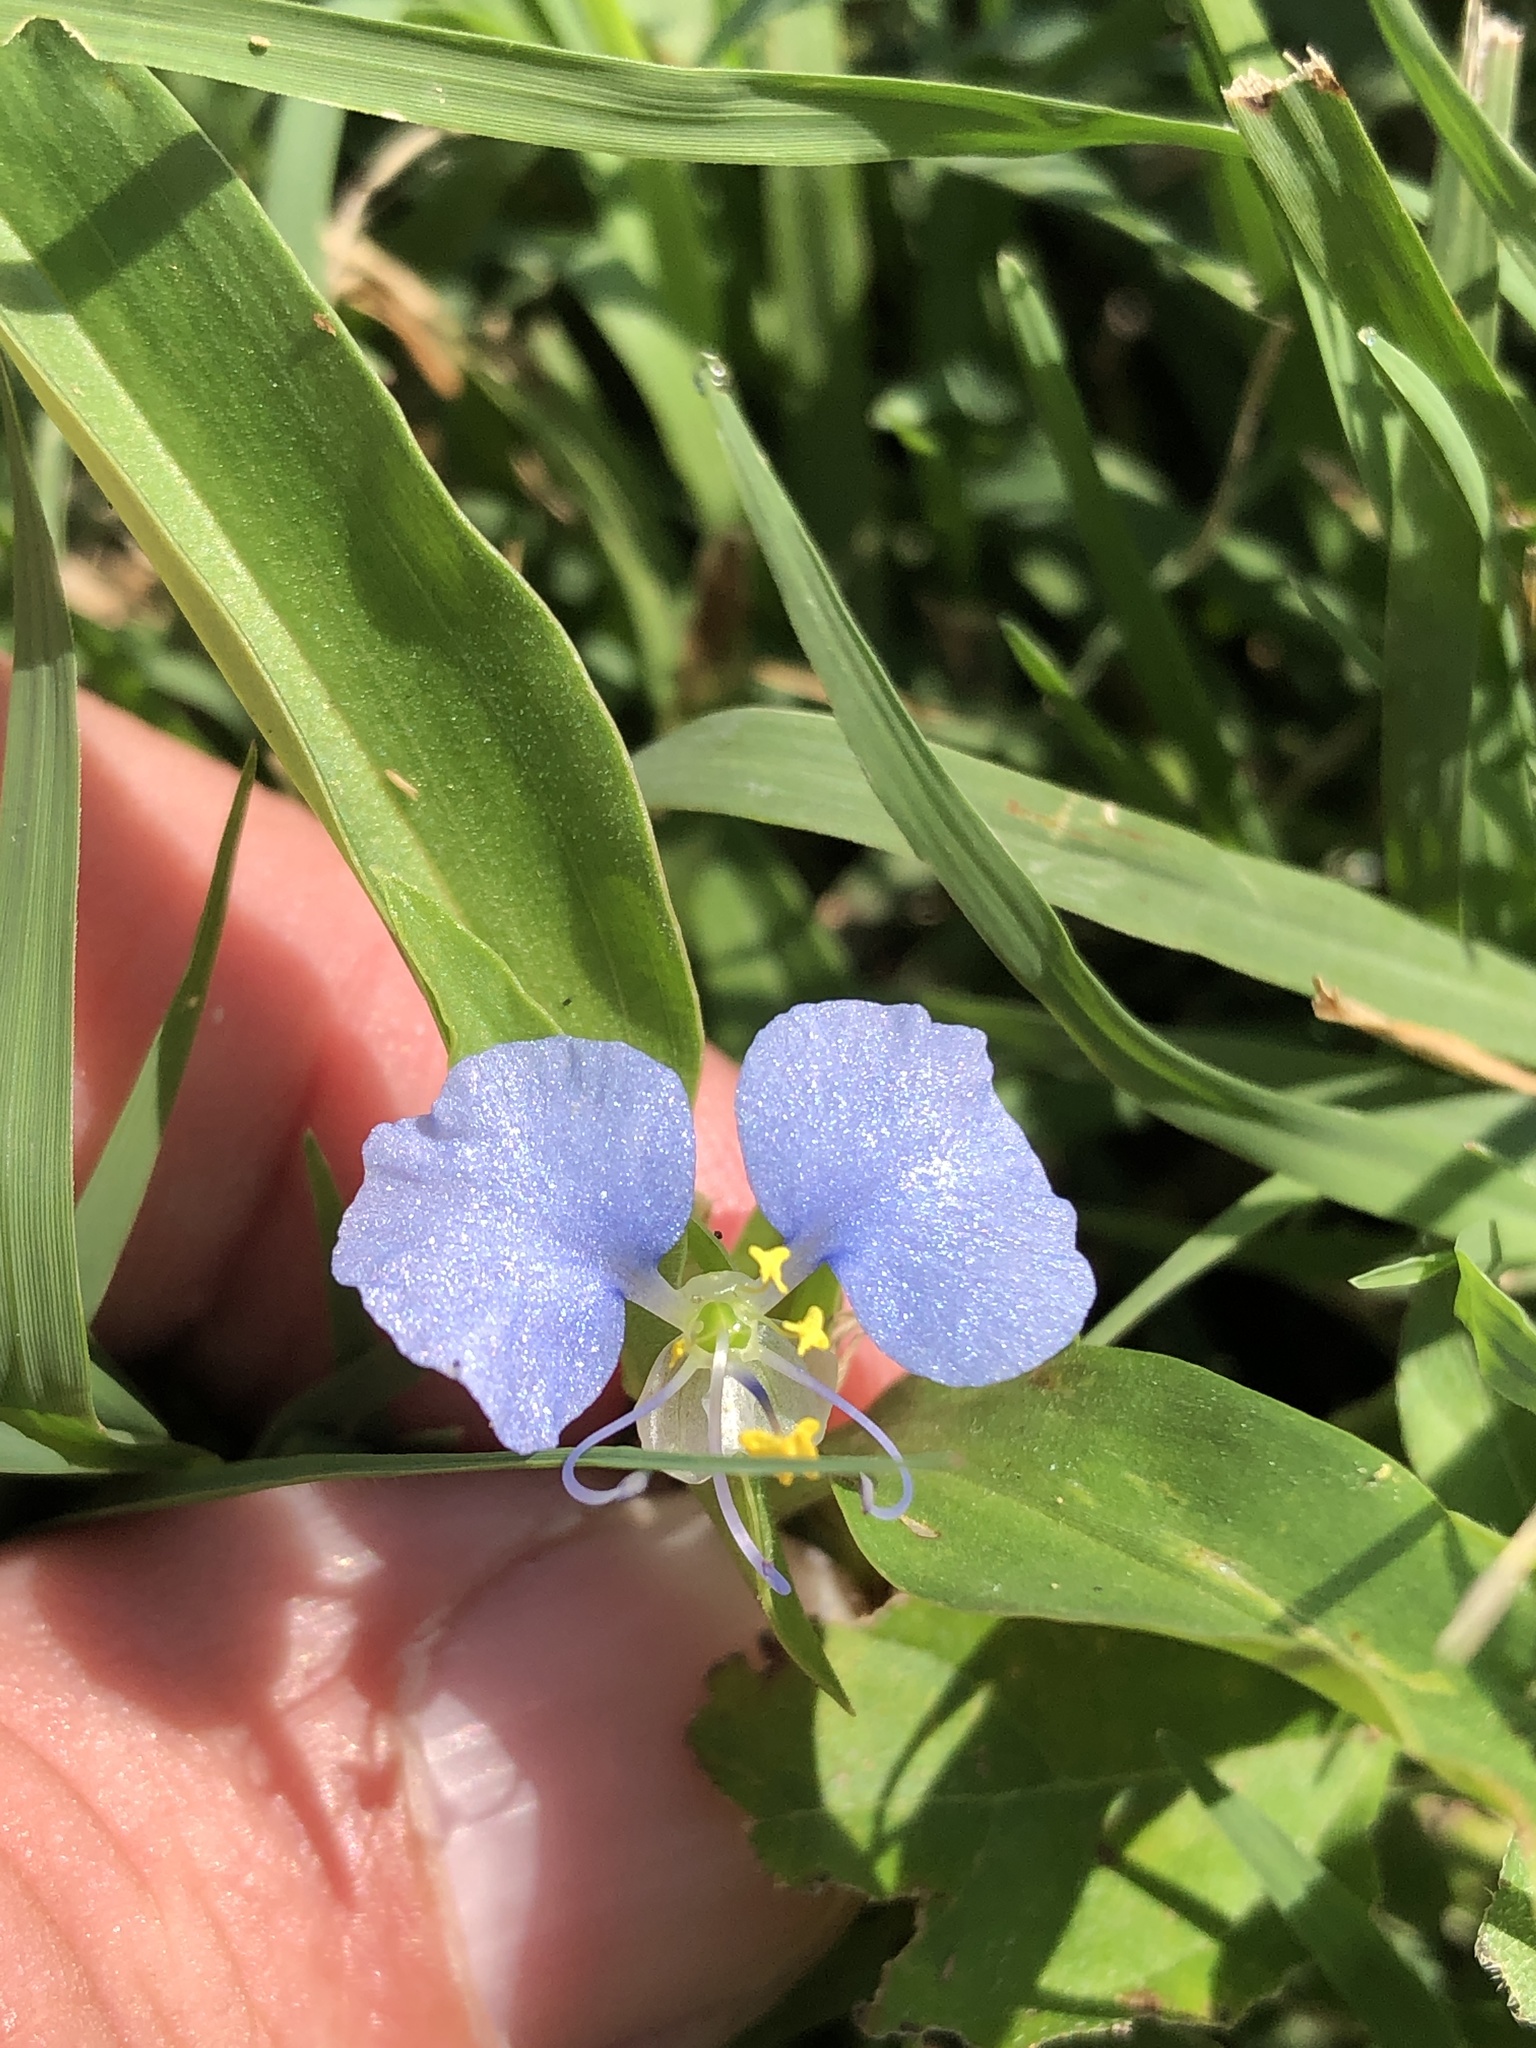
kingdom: Plantae
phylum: Tracheophyta
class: Liliopsida
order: Commelinales
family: Commelinaceae
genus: Commelina
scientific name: Commelina erecta
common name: Blousel blommetjie
